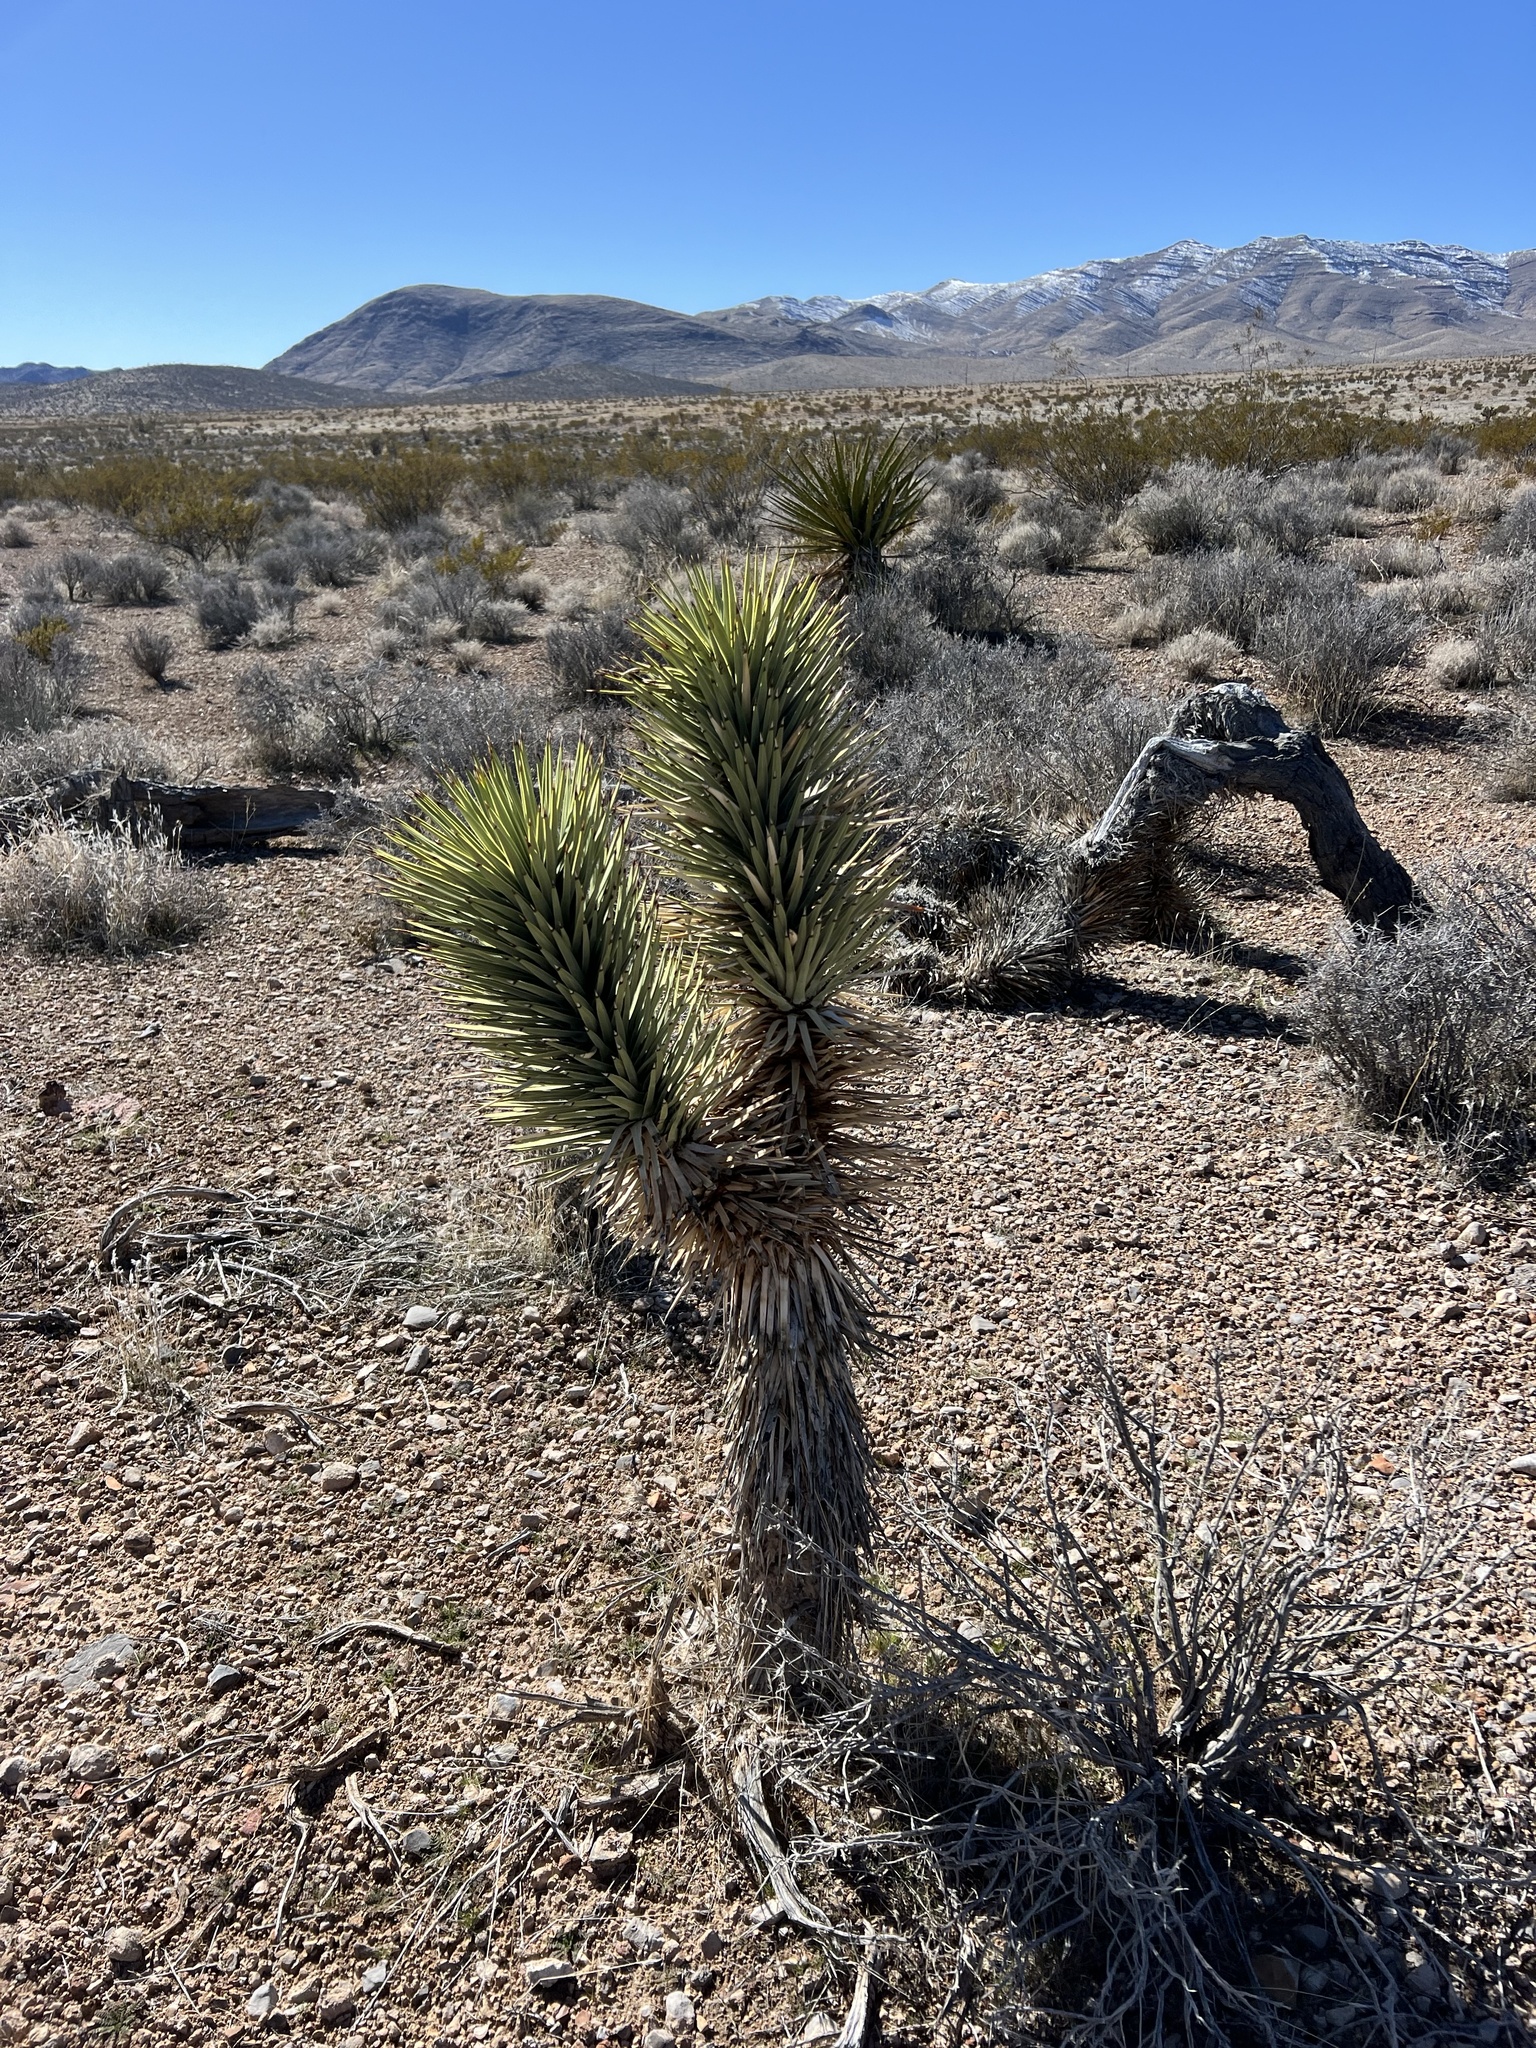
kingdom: Plantae
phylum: Tracheophyta
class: Liliopsida
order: Asparagales
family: Asparagaceae
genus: Yucca
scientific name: Yucca brevifolia
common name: Joshua tree
